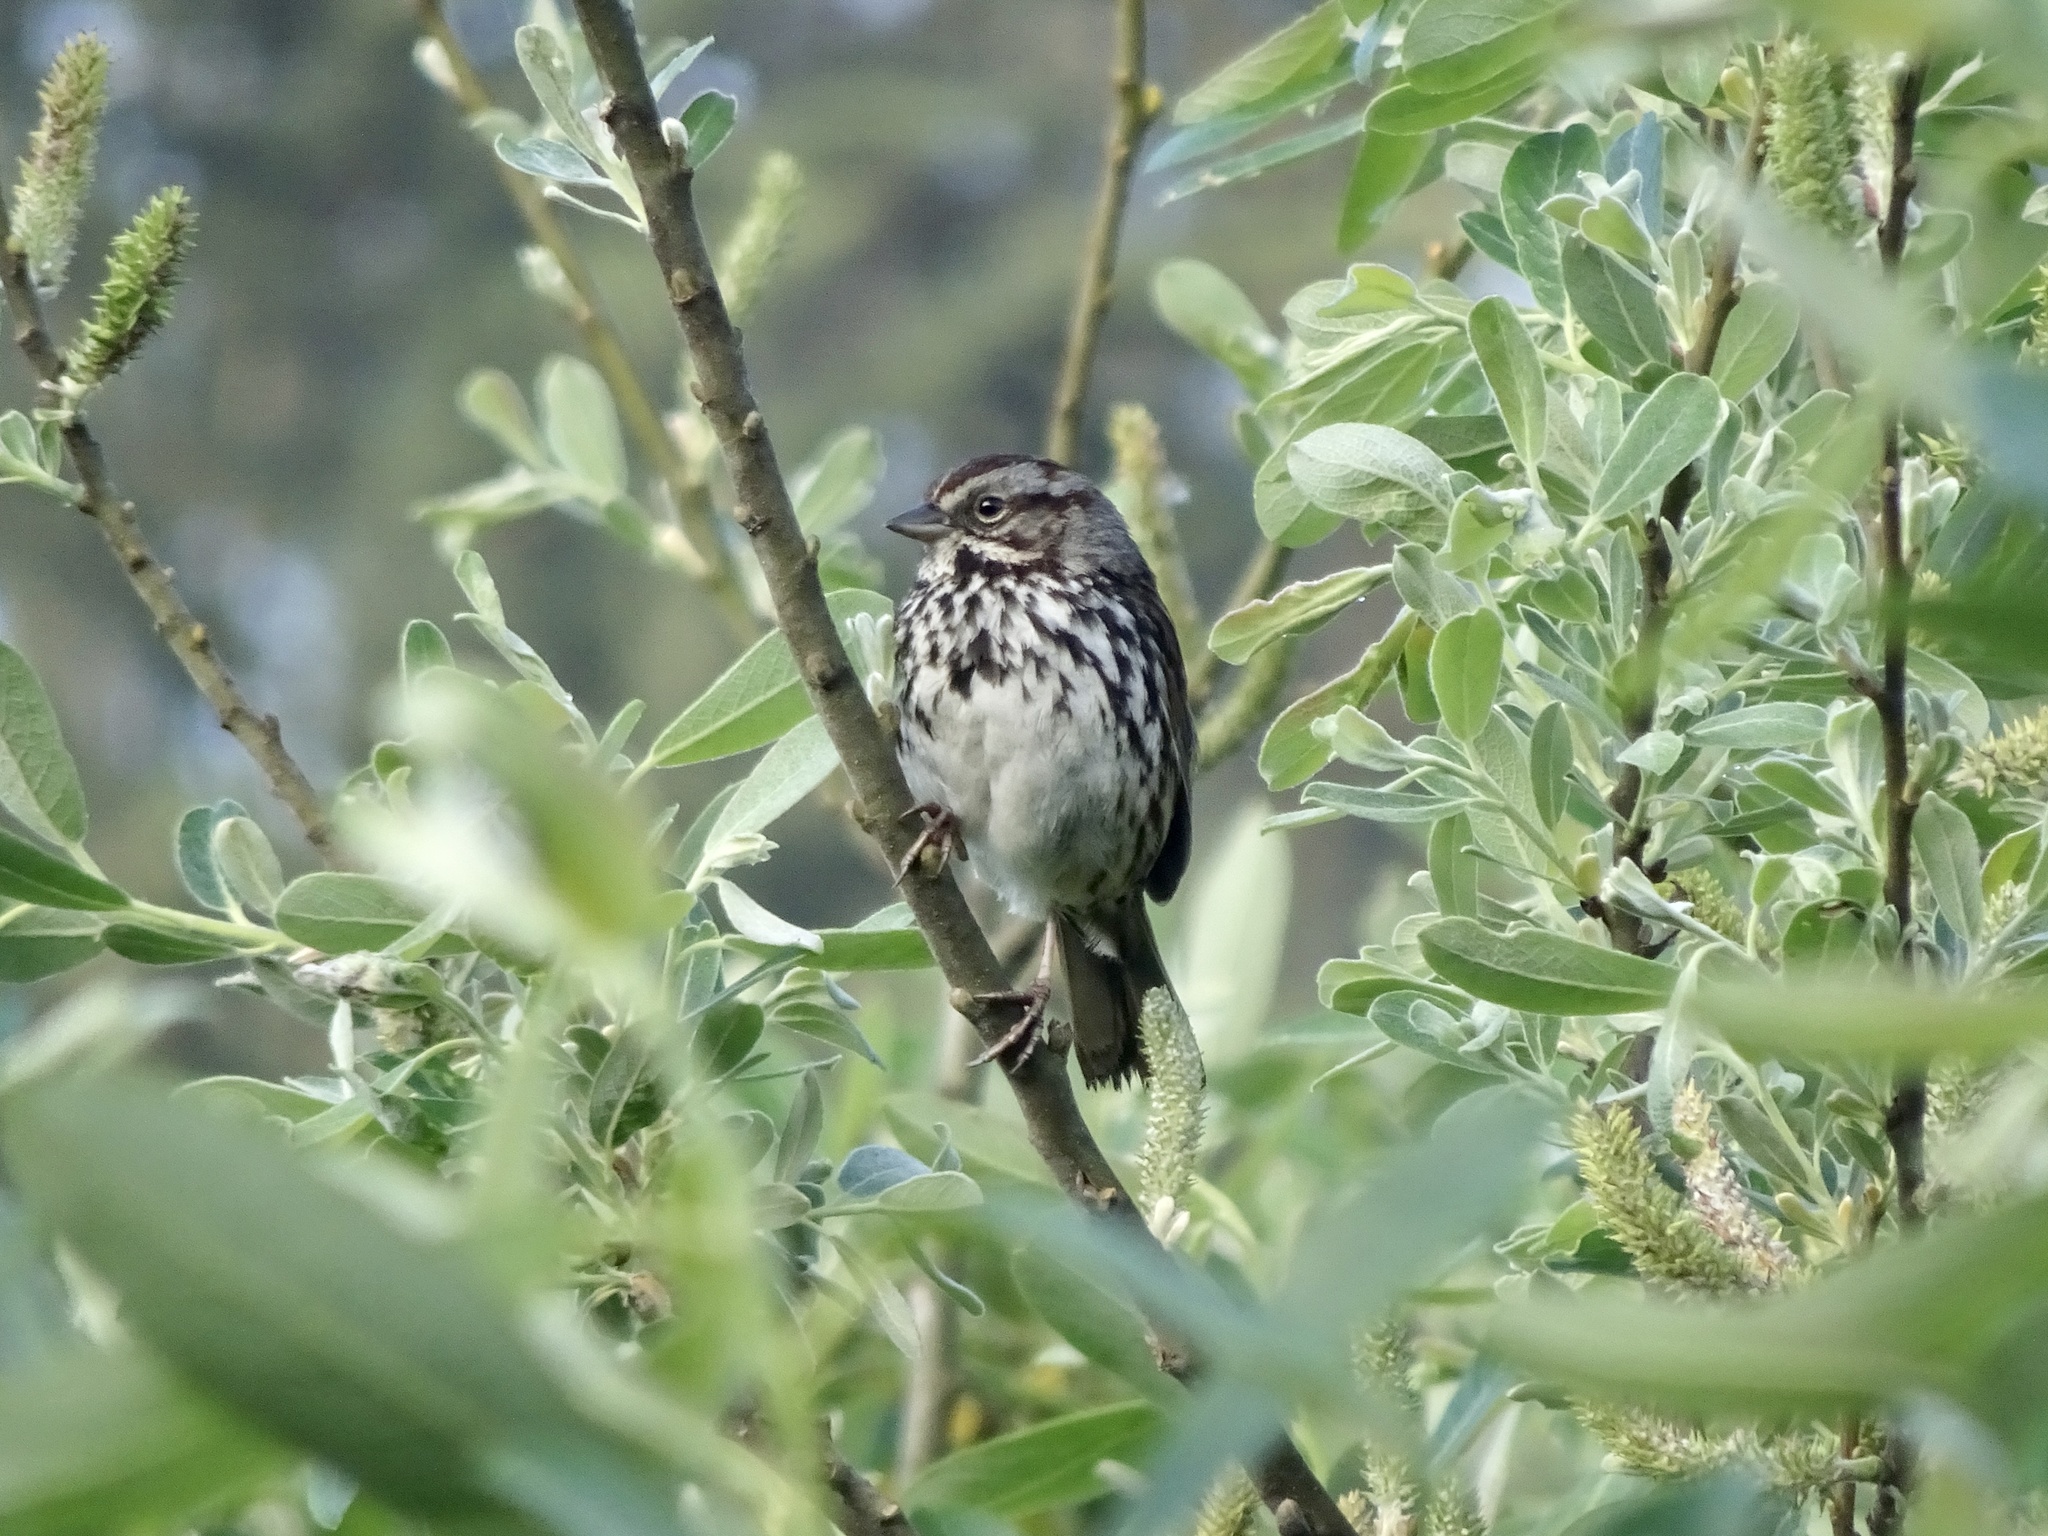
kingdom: Animalia
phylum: Chordata
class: Aves
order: Passeriformes
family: Passerellidae
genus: Melospiza
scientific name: Melospiza melodia
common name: Song sparrow
